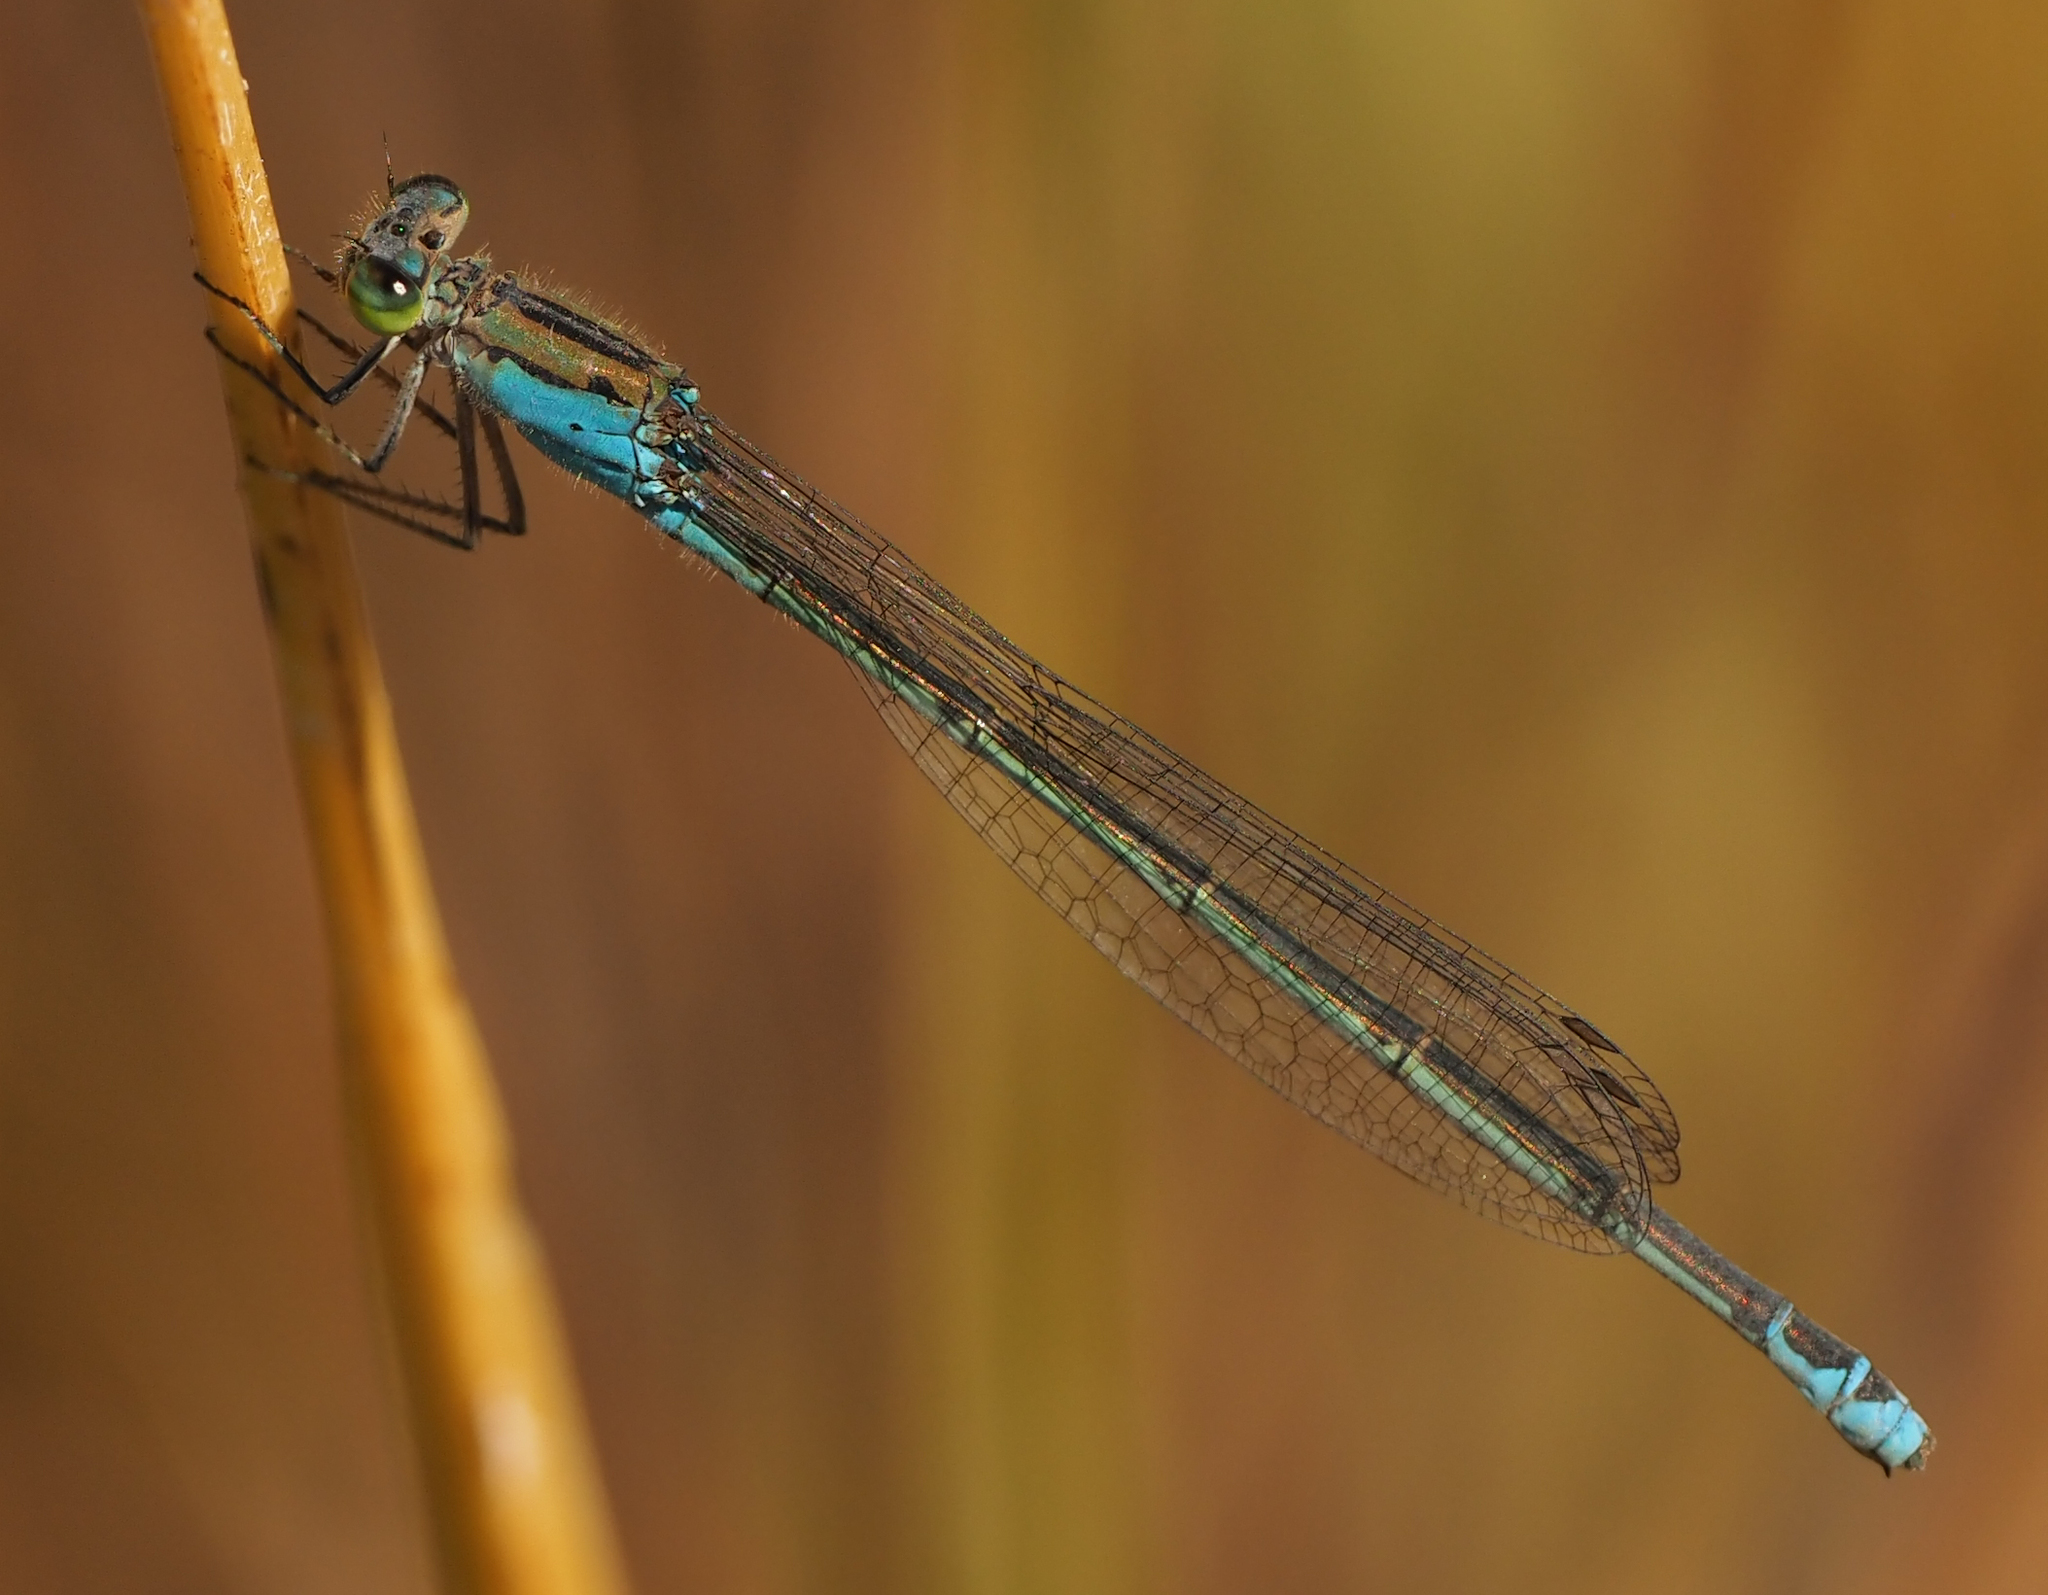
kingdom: Animalia
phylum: Arthropoda
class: Insecta
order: Odonata
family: Coenagrionidae
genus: Pseudagrion
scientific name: Pseudagrion coeleste
